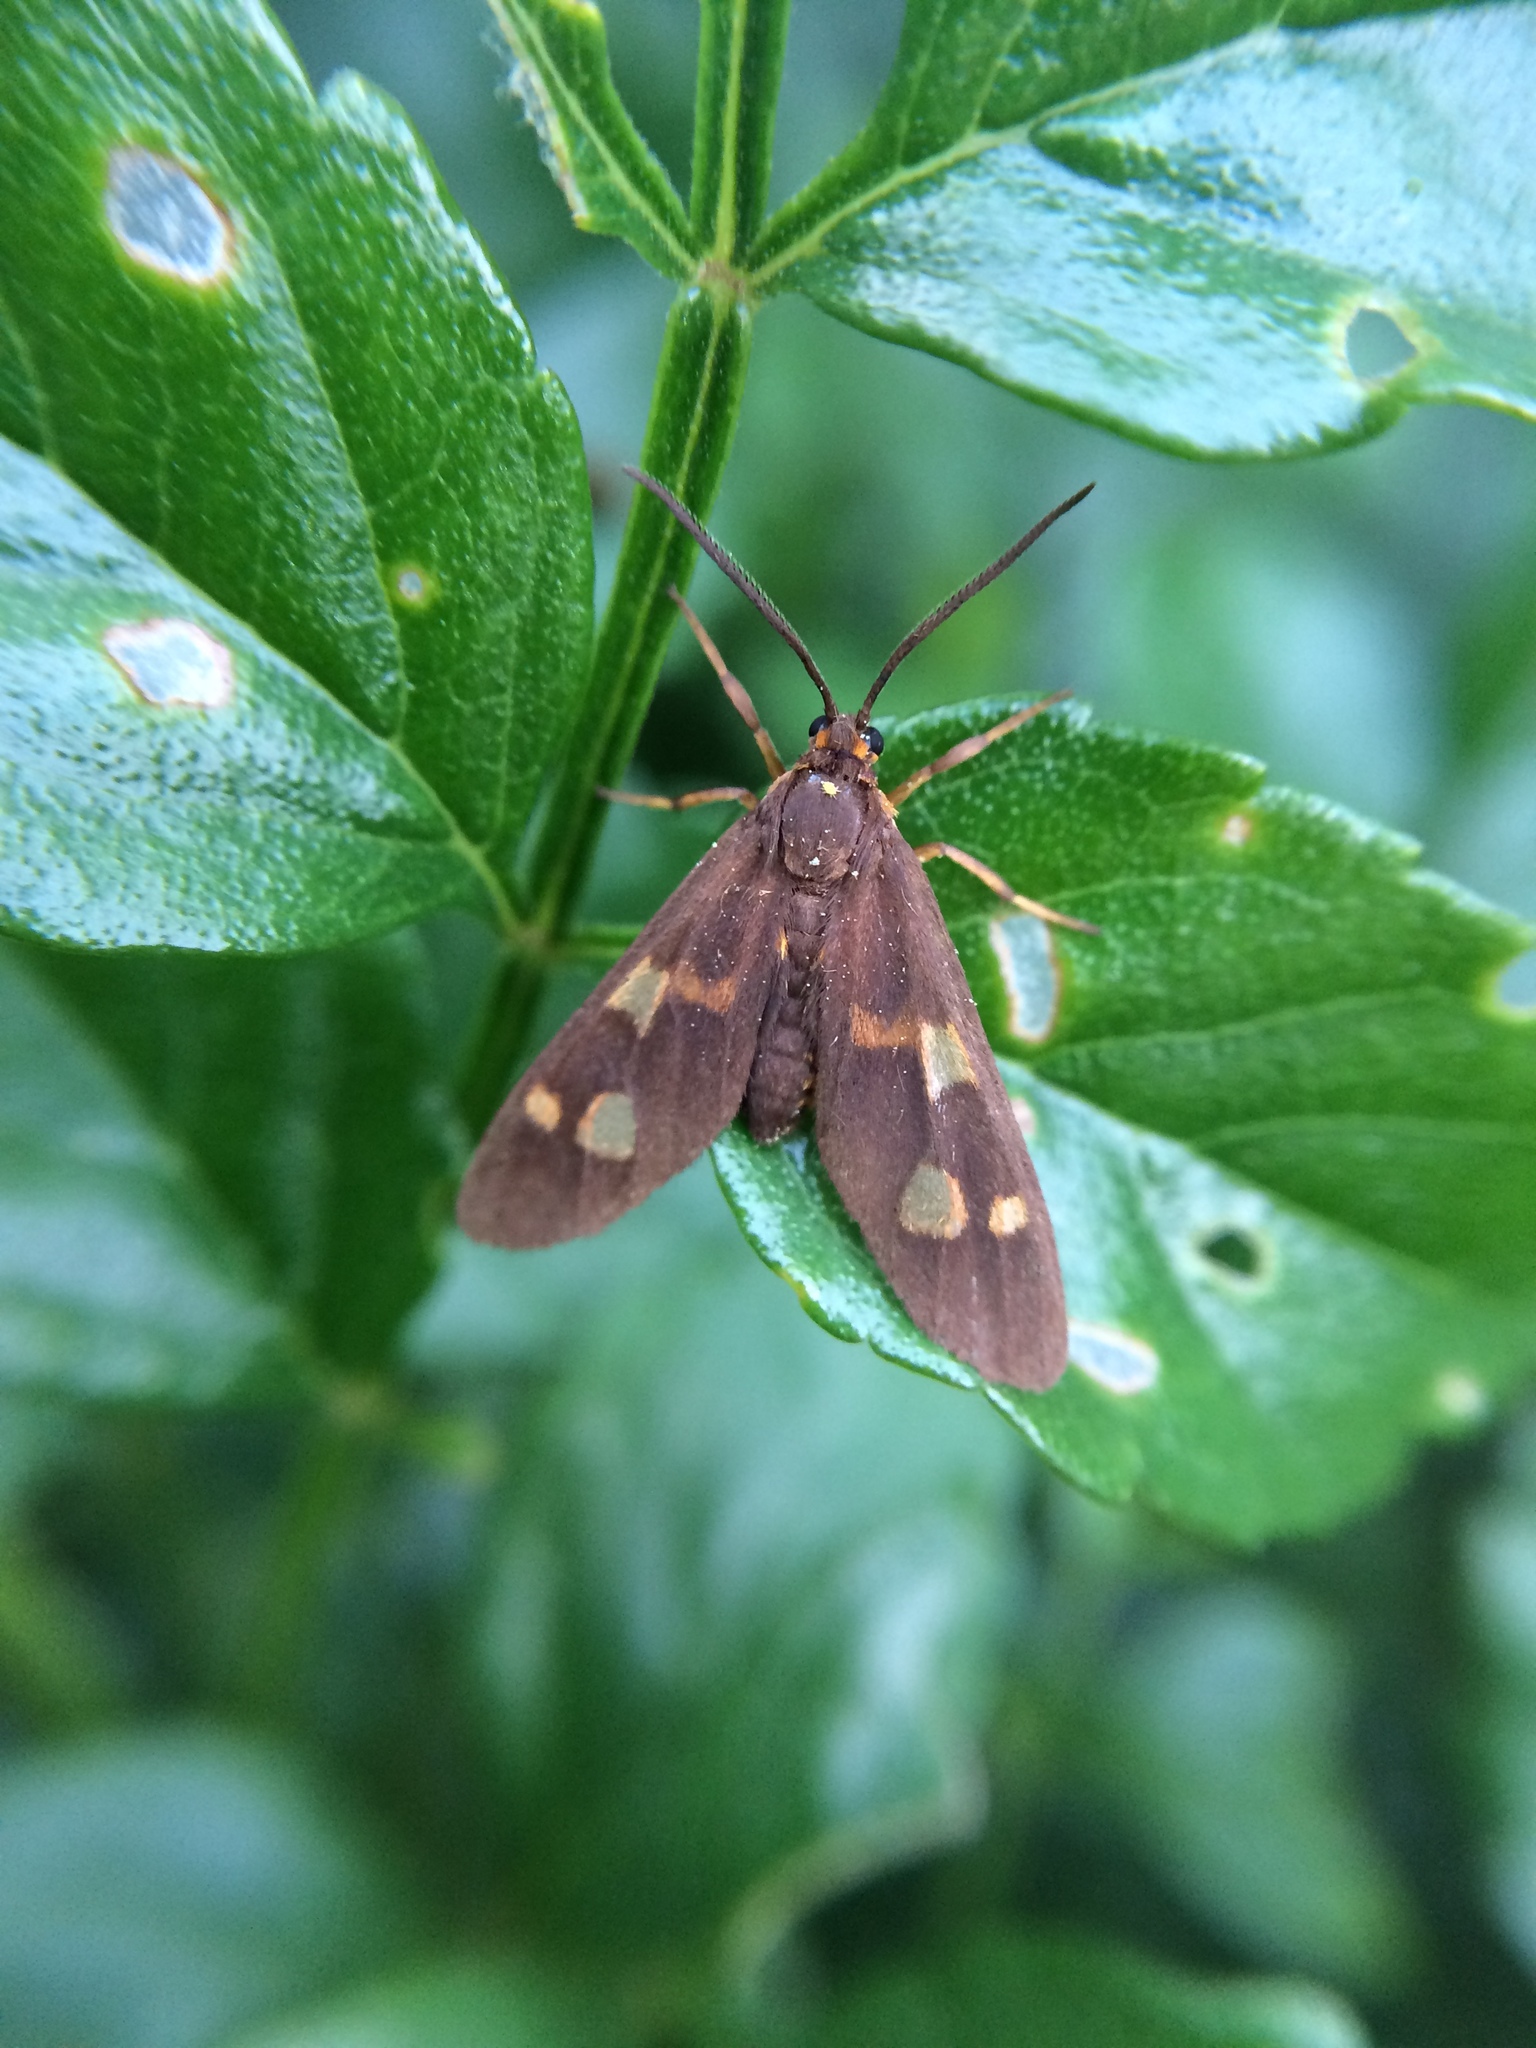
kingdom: Animalia
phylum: Arthropoda
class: Insecta
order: Lepidoptera
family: Erebidae
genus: Pseudonaclia
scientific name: Pseudonaclia puella
